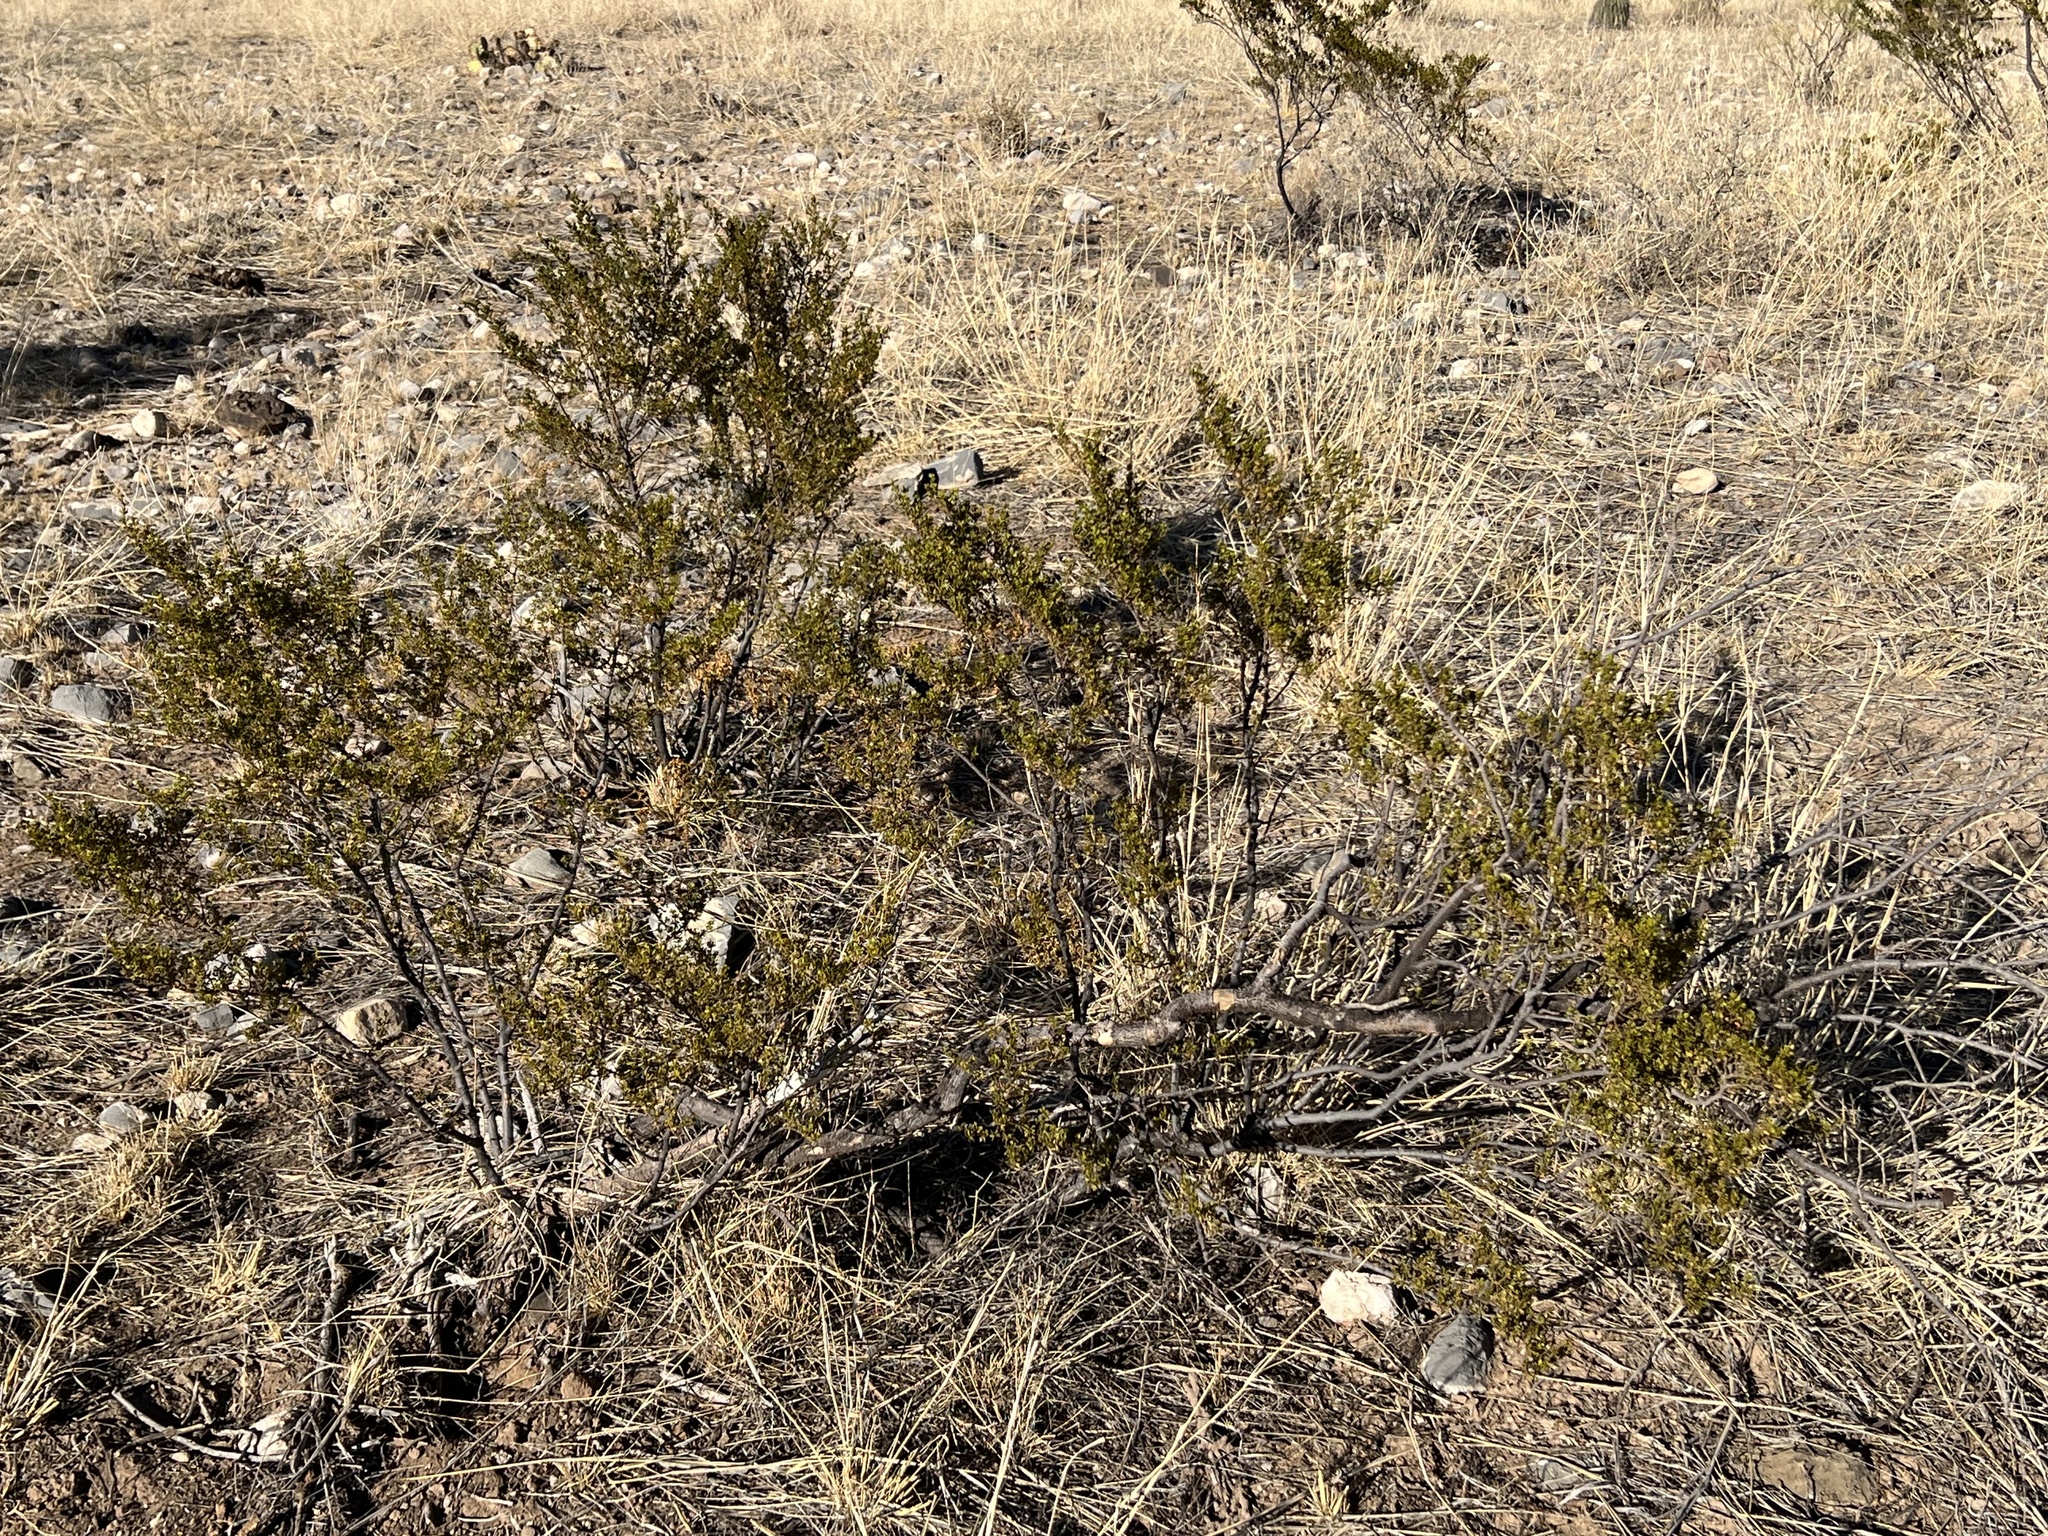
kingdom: Plantae
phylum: Tracheophyta
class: Magnoliopsida
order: Zygophyllales
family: Zygophyllaceae
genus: Larrea
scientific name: Larrea tridentata
